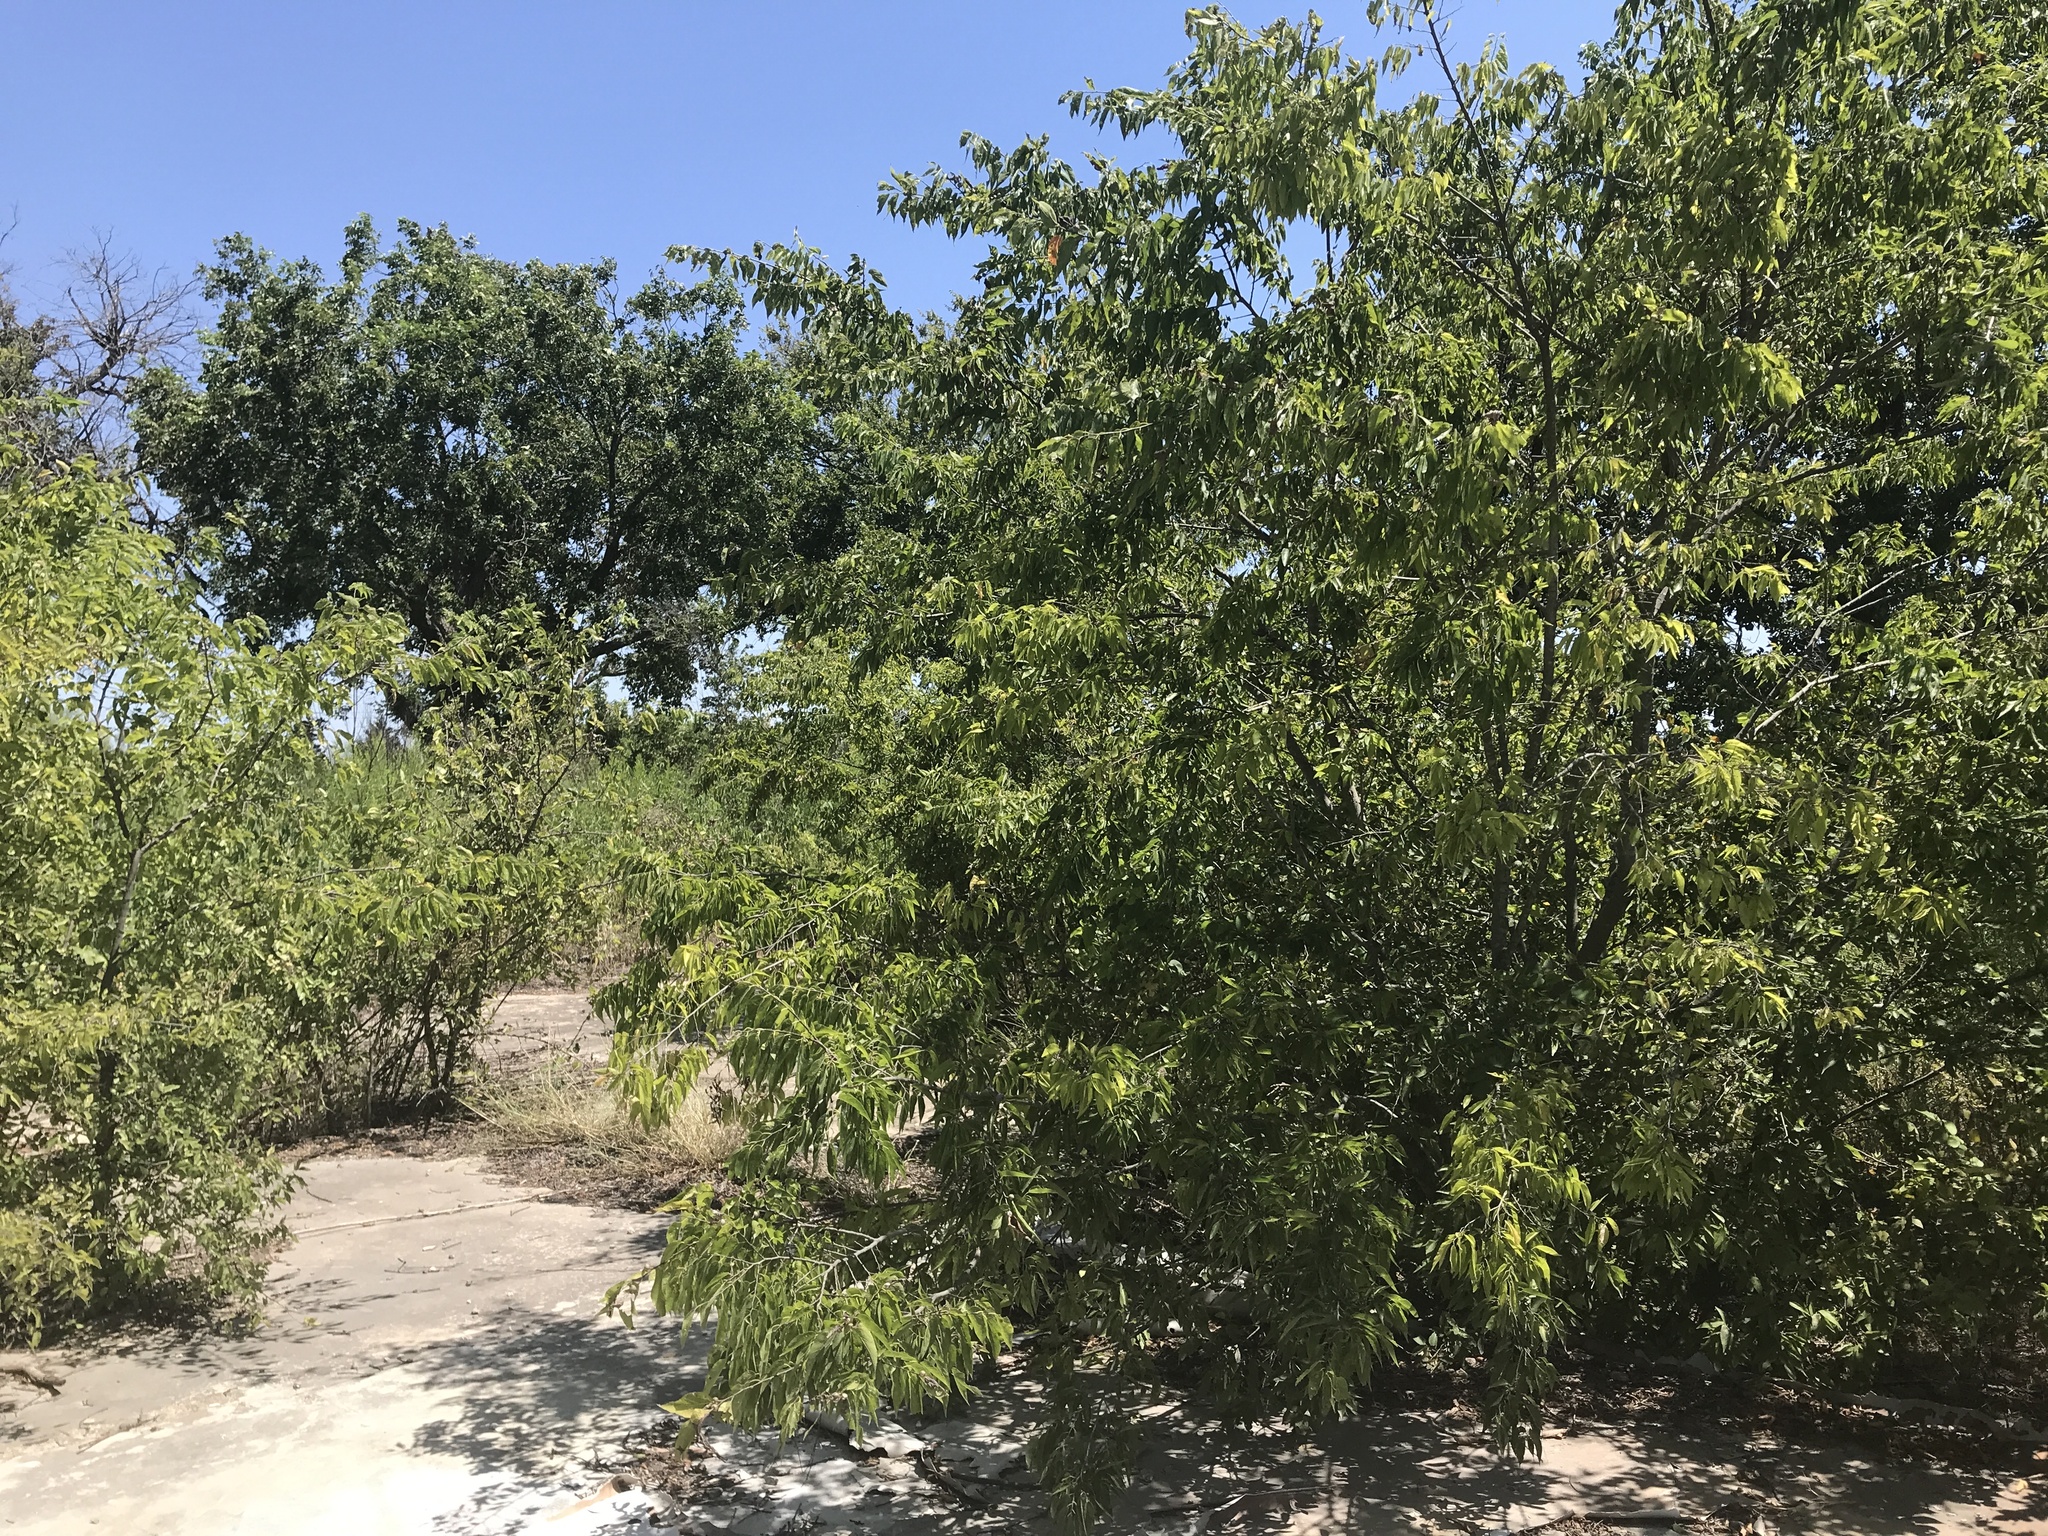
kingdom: Plantae
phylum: Tracheophyta
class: Magnoliopsida
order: Rosales
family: Cannabaceae
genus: Celtis
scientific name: Celtis laevigata
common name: Sugarberry
